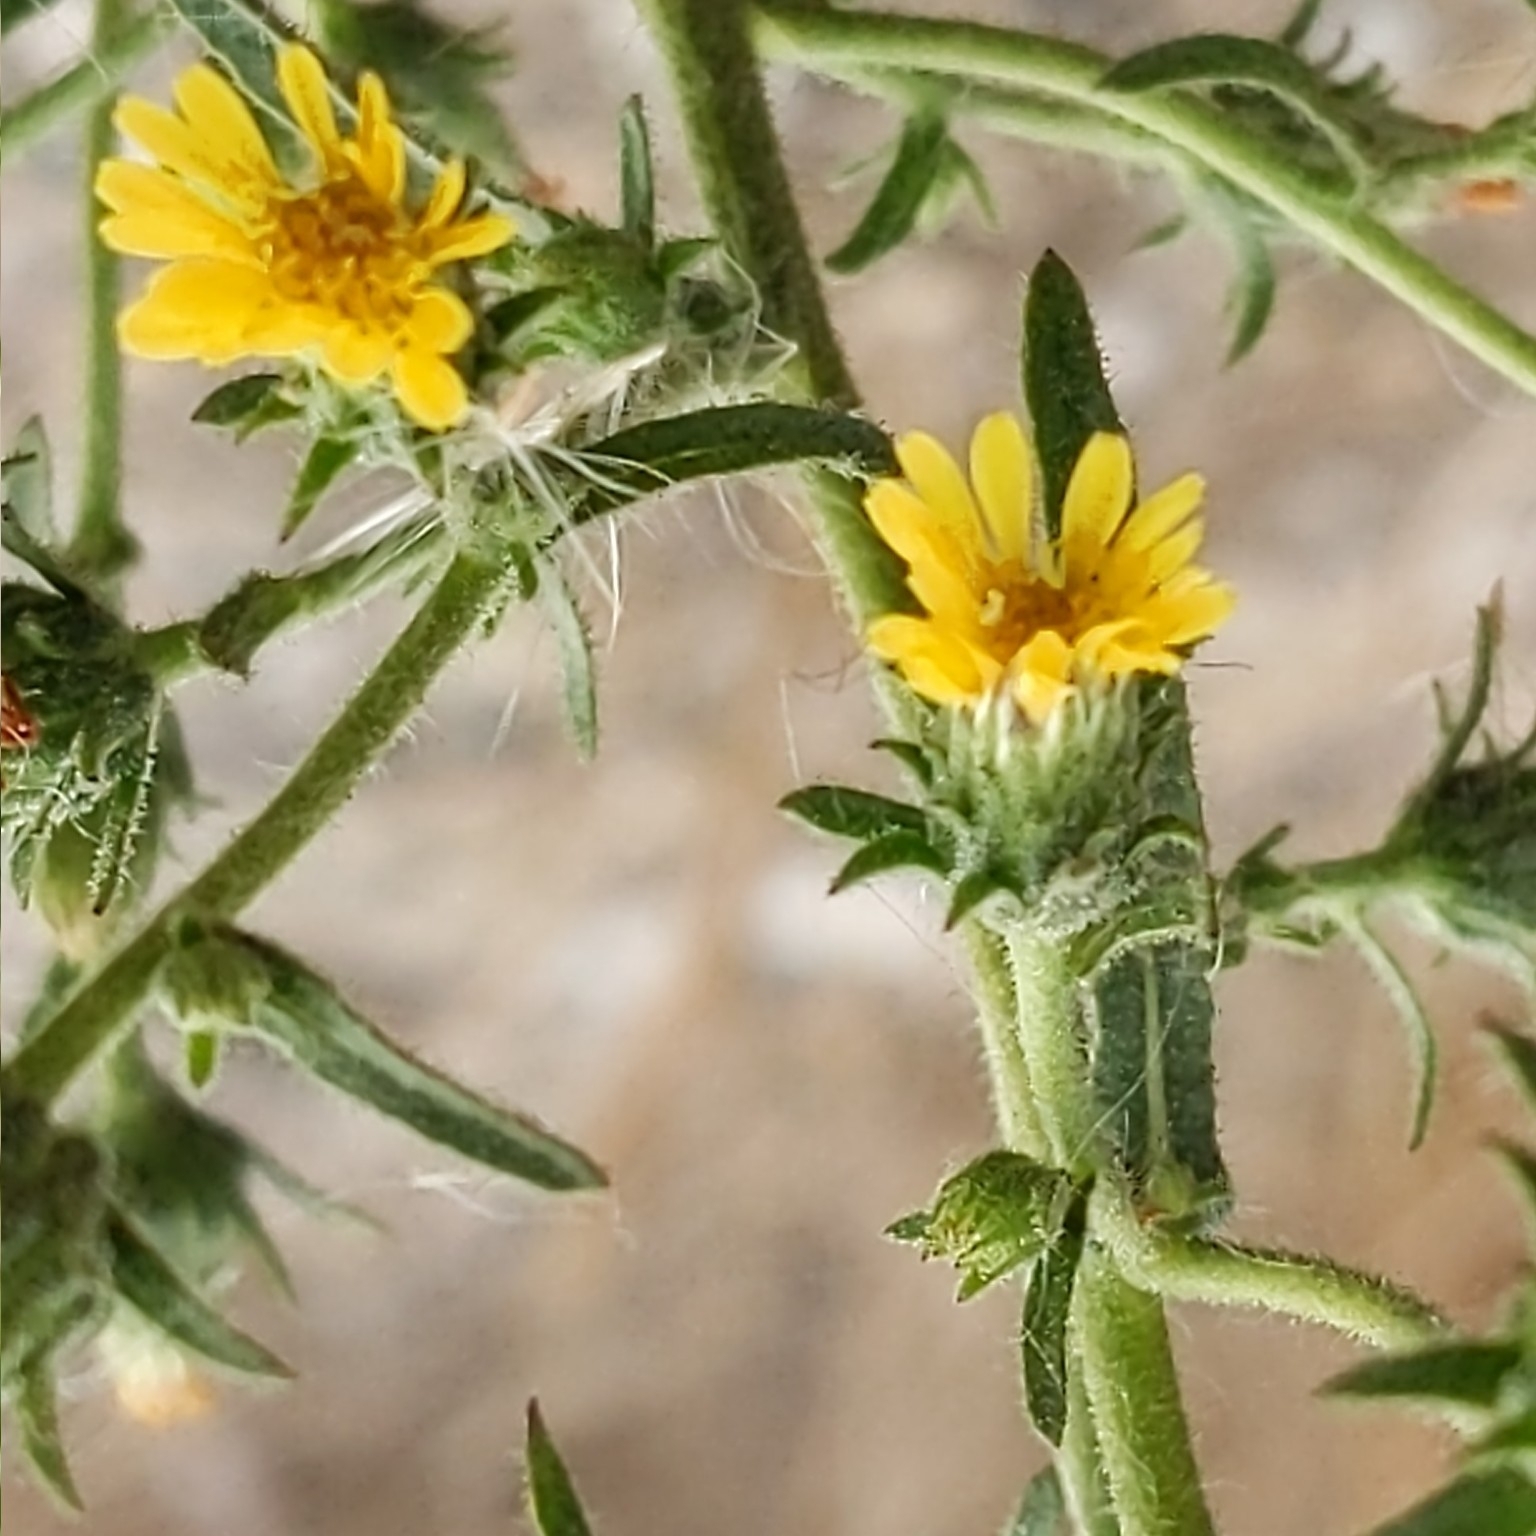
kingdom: Plantae
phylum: Tracheophyta
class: Magnoliopsida
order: Asterales
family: Asteraceae
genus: Dittrichia
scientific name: Dittrichia graveolens
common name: Stinking fleabane
